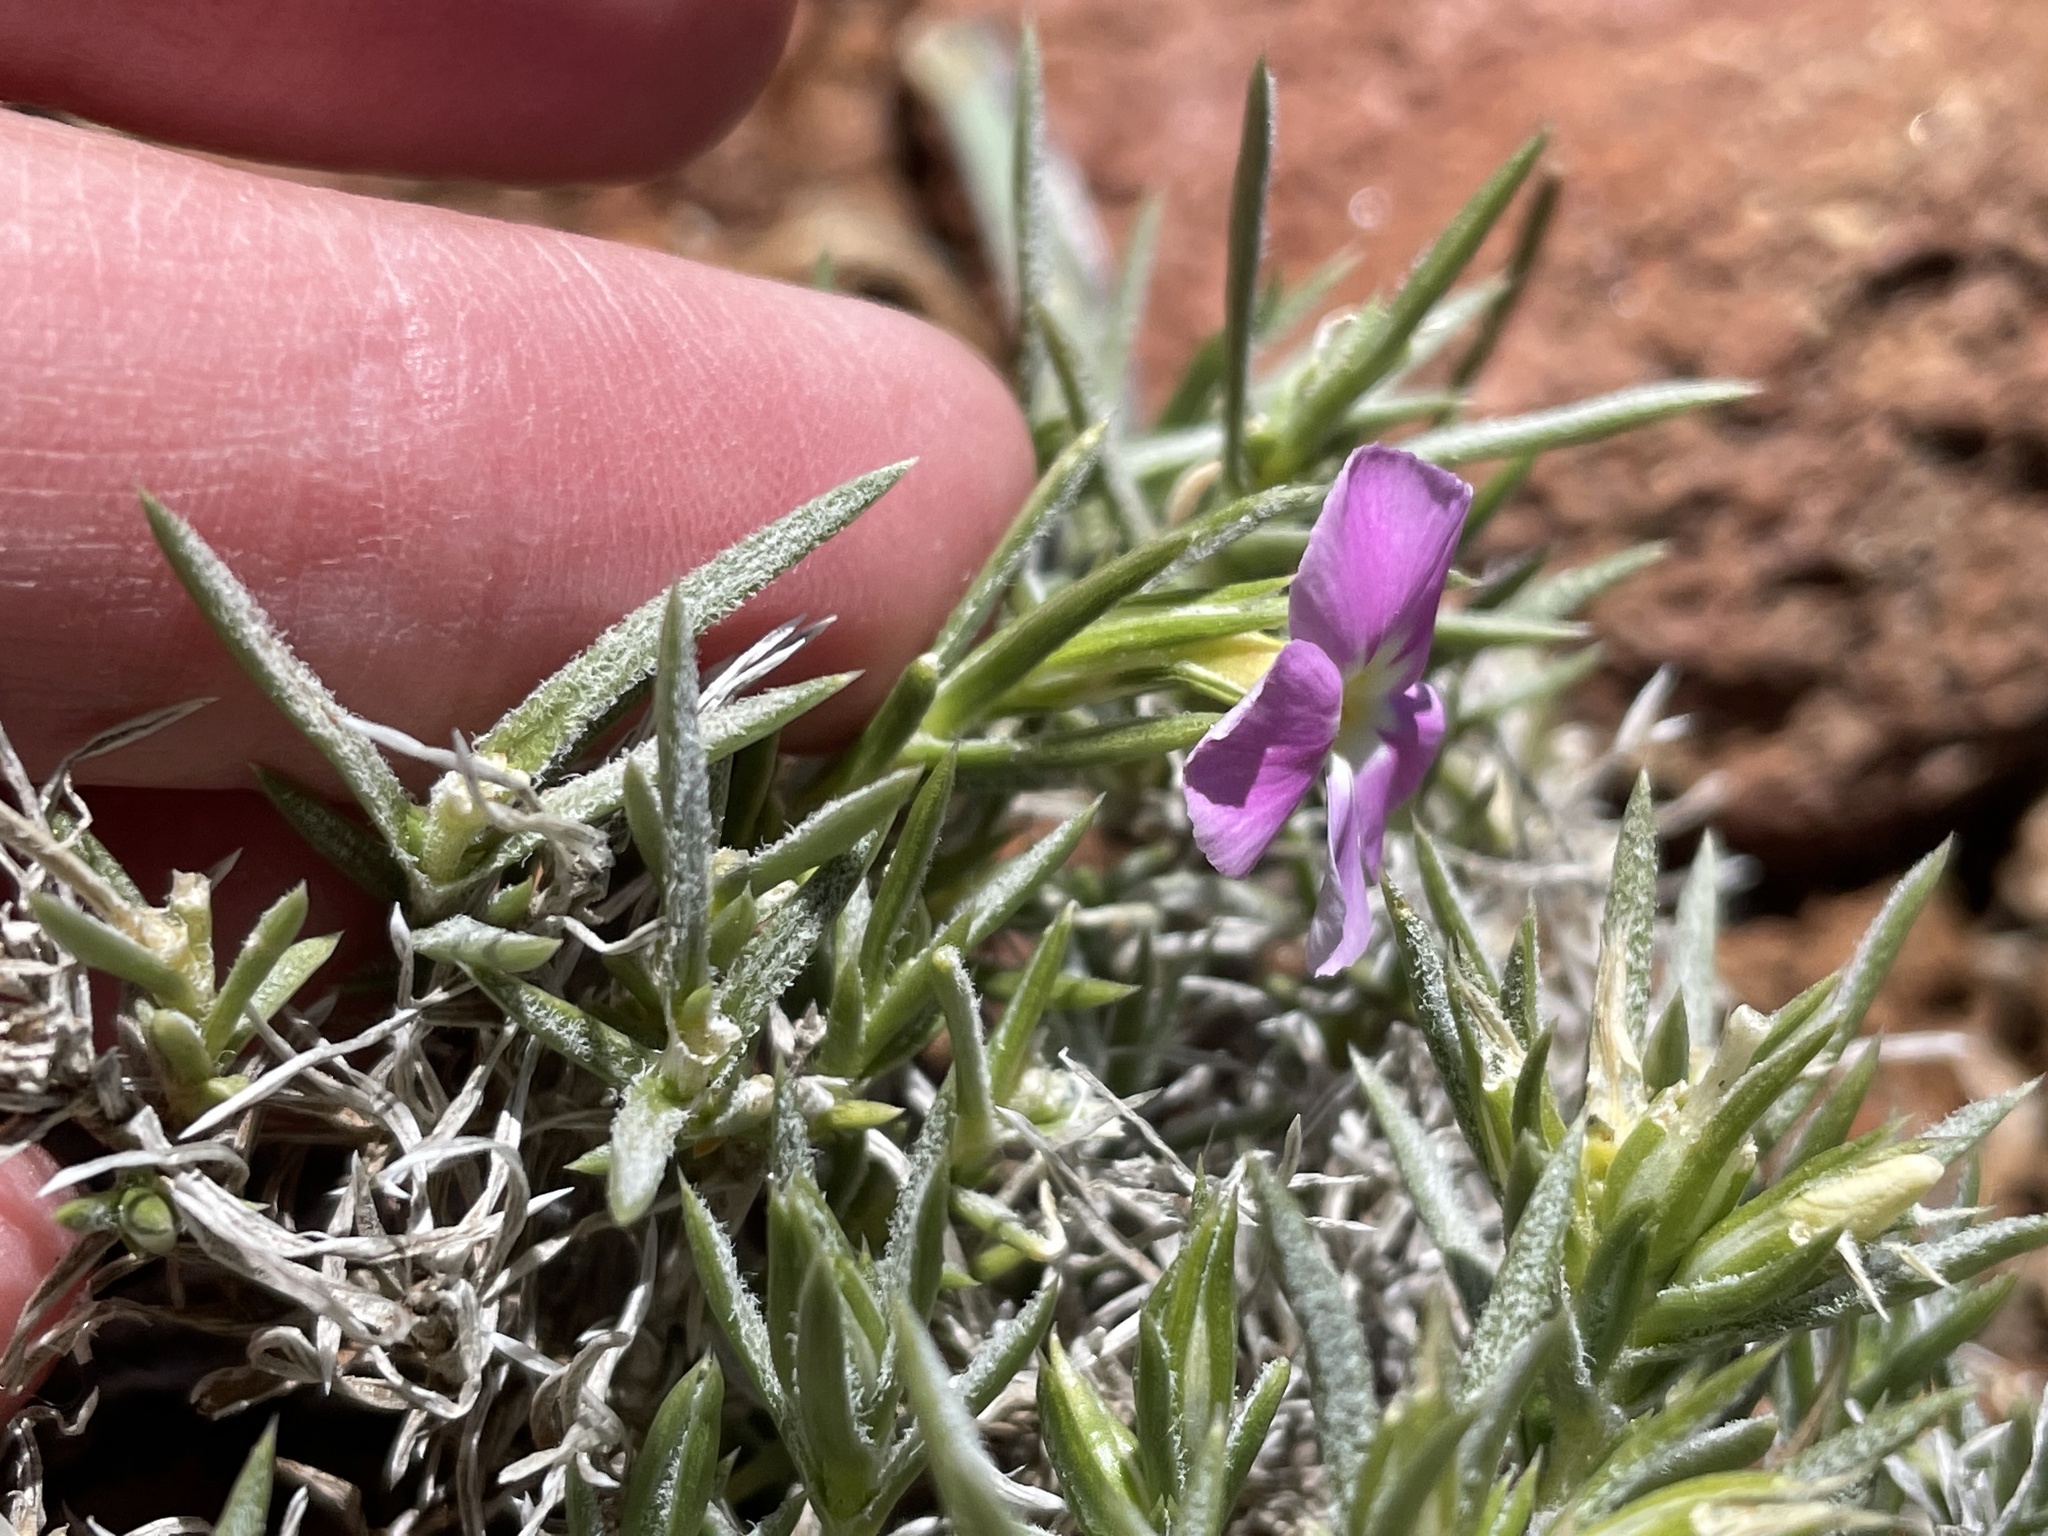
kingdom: Plantae
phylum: Tracheophyta
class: Magnoliopsida
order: Ericales
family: Polemoniaceae
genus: Phlox
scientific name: Phlox austromontana
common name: Desert phlox
